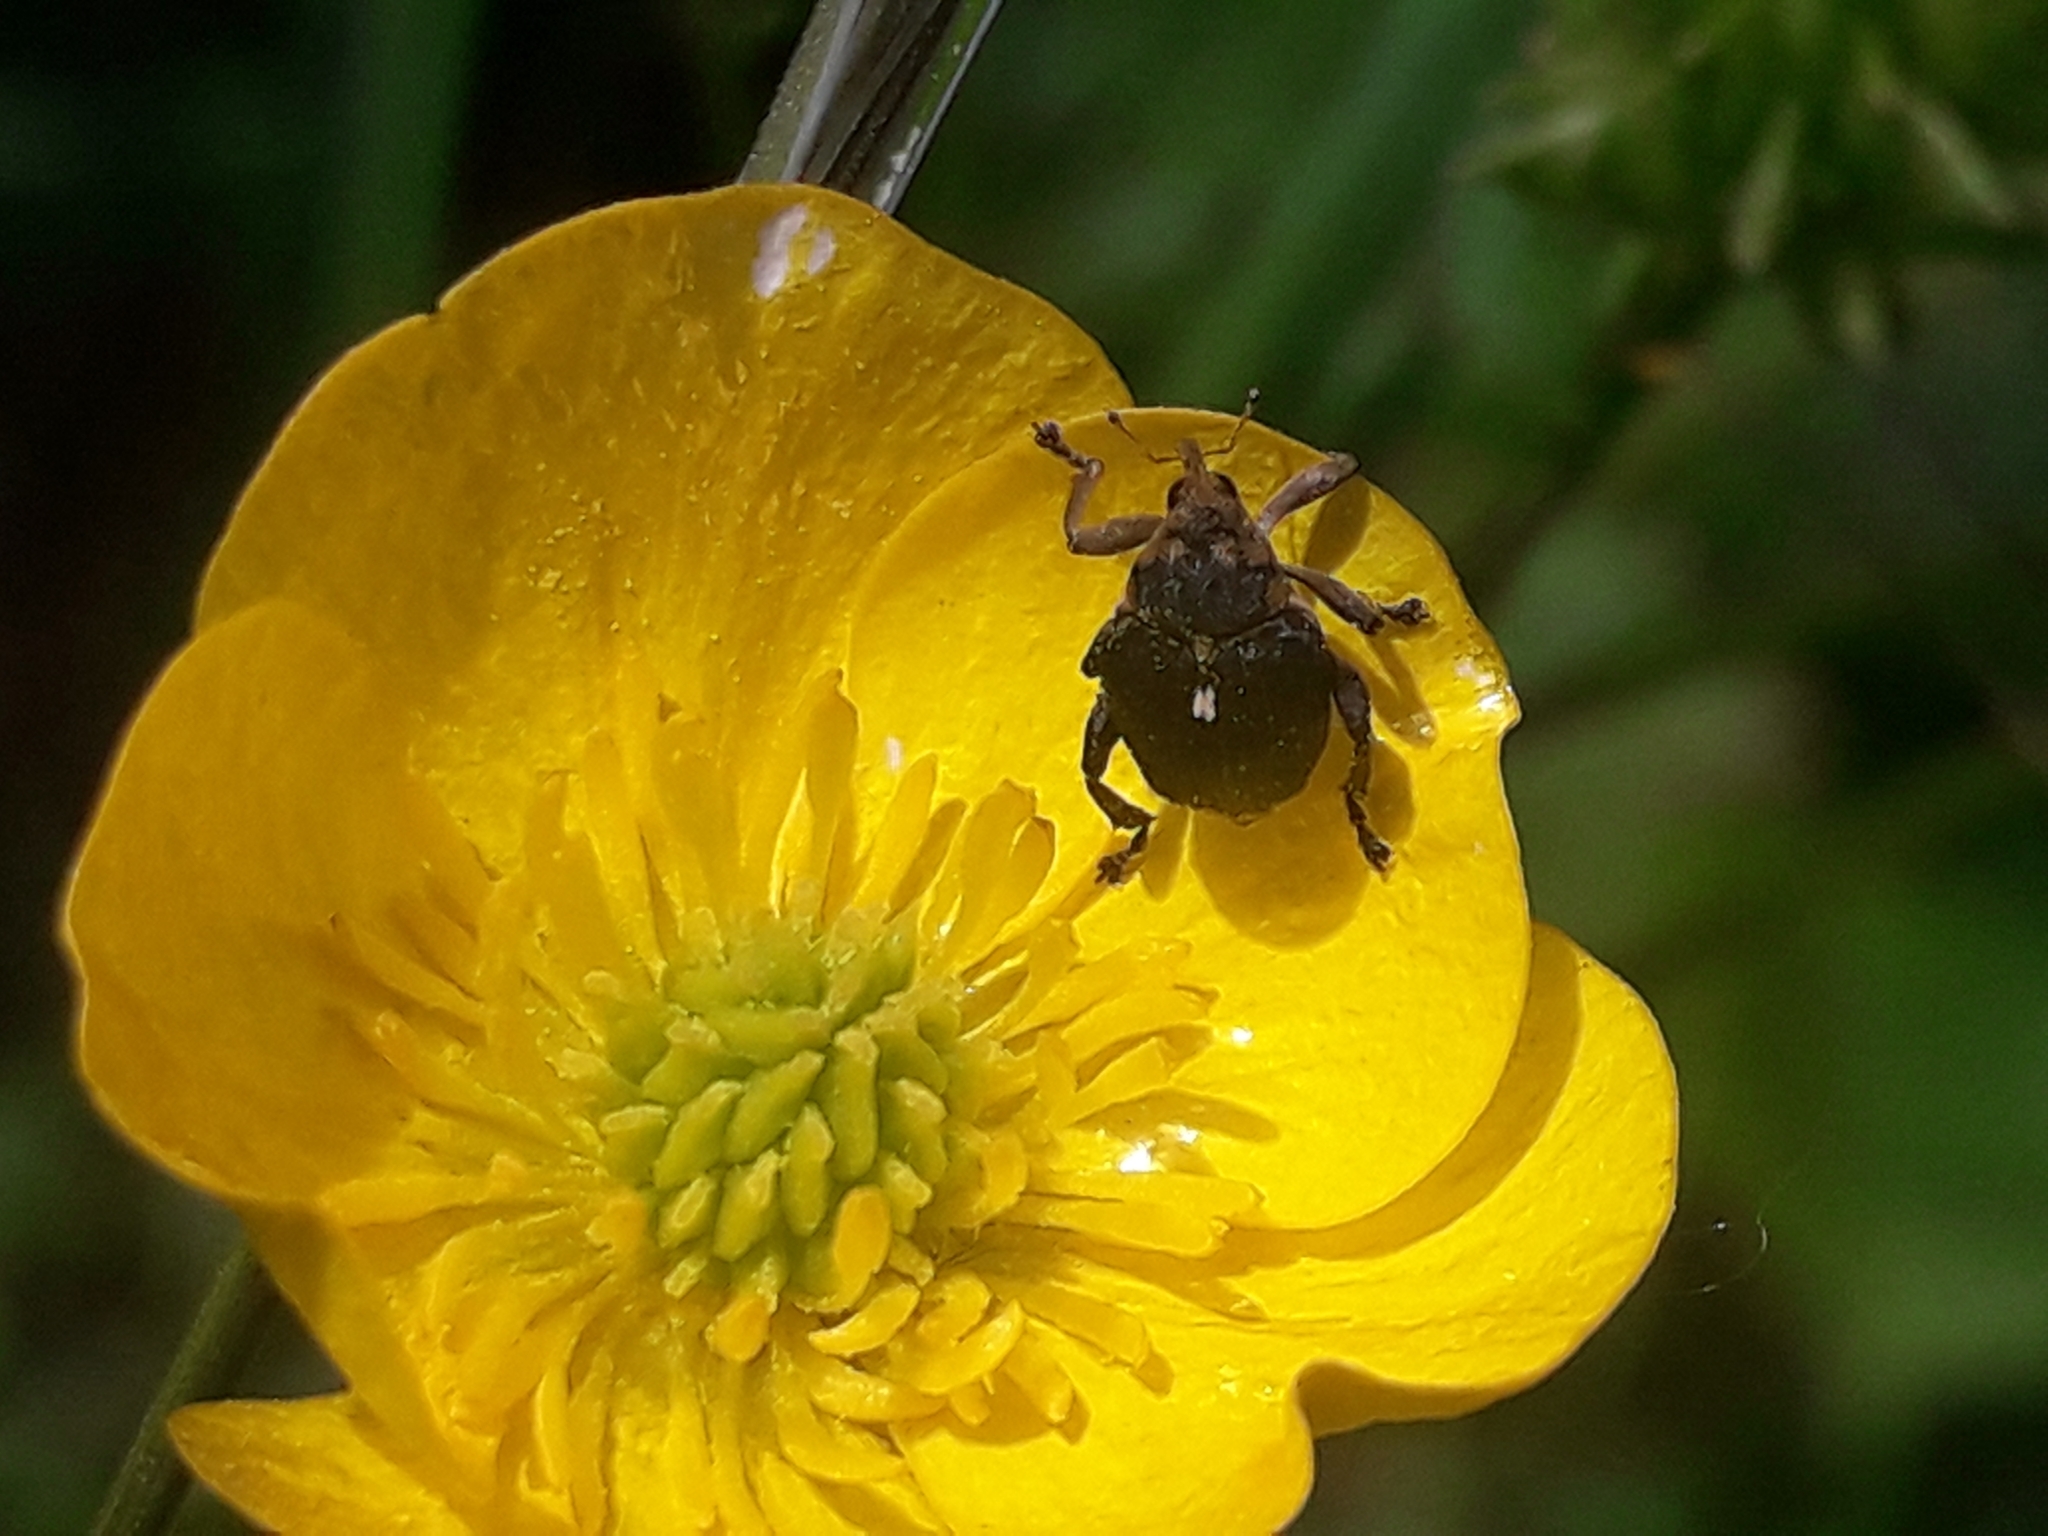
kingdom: Animalia
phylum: Arthropoda
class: Insecta
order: Coleoptera
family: Curculionidae
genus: Mononychus
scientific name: Mononychus punctumalbum
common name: Iris weevil
